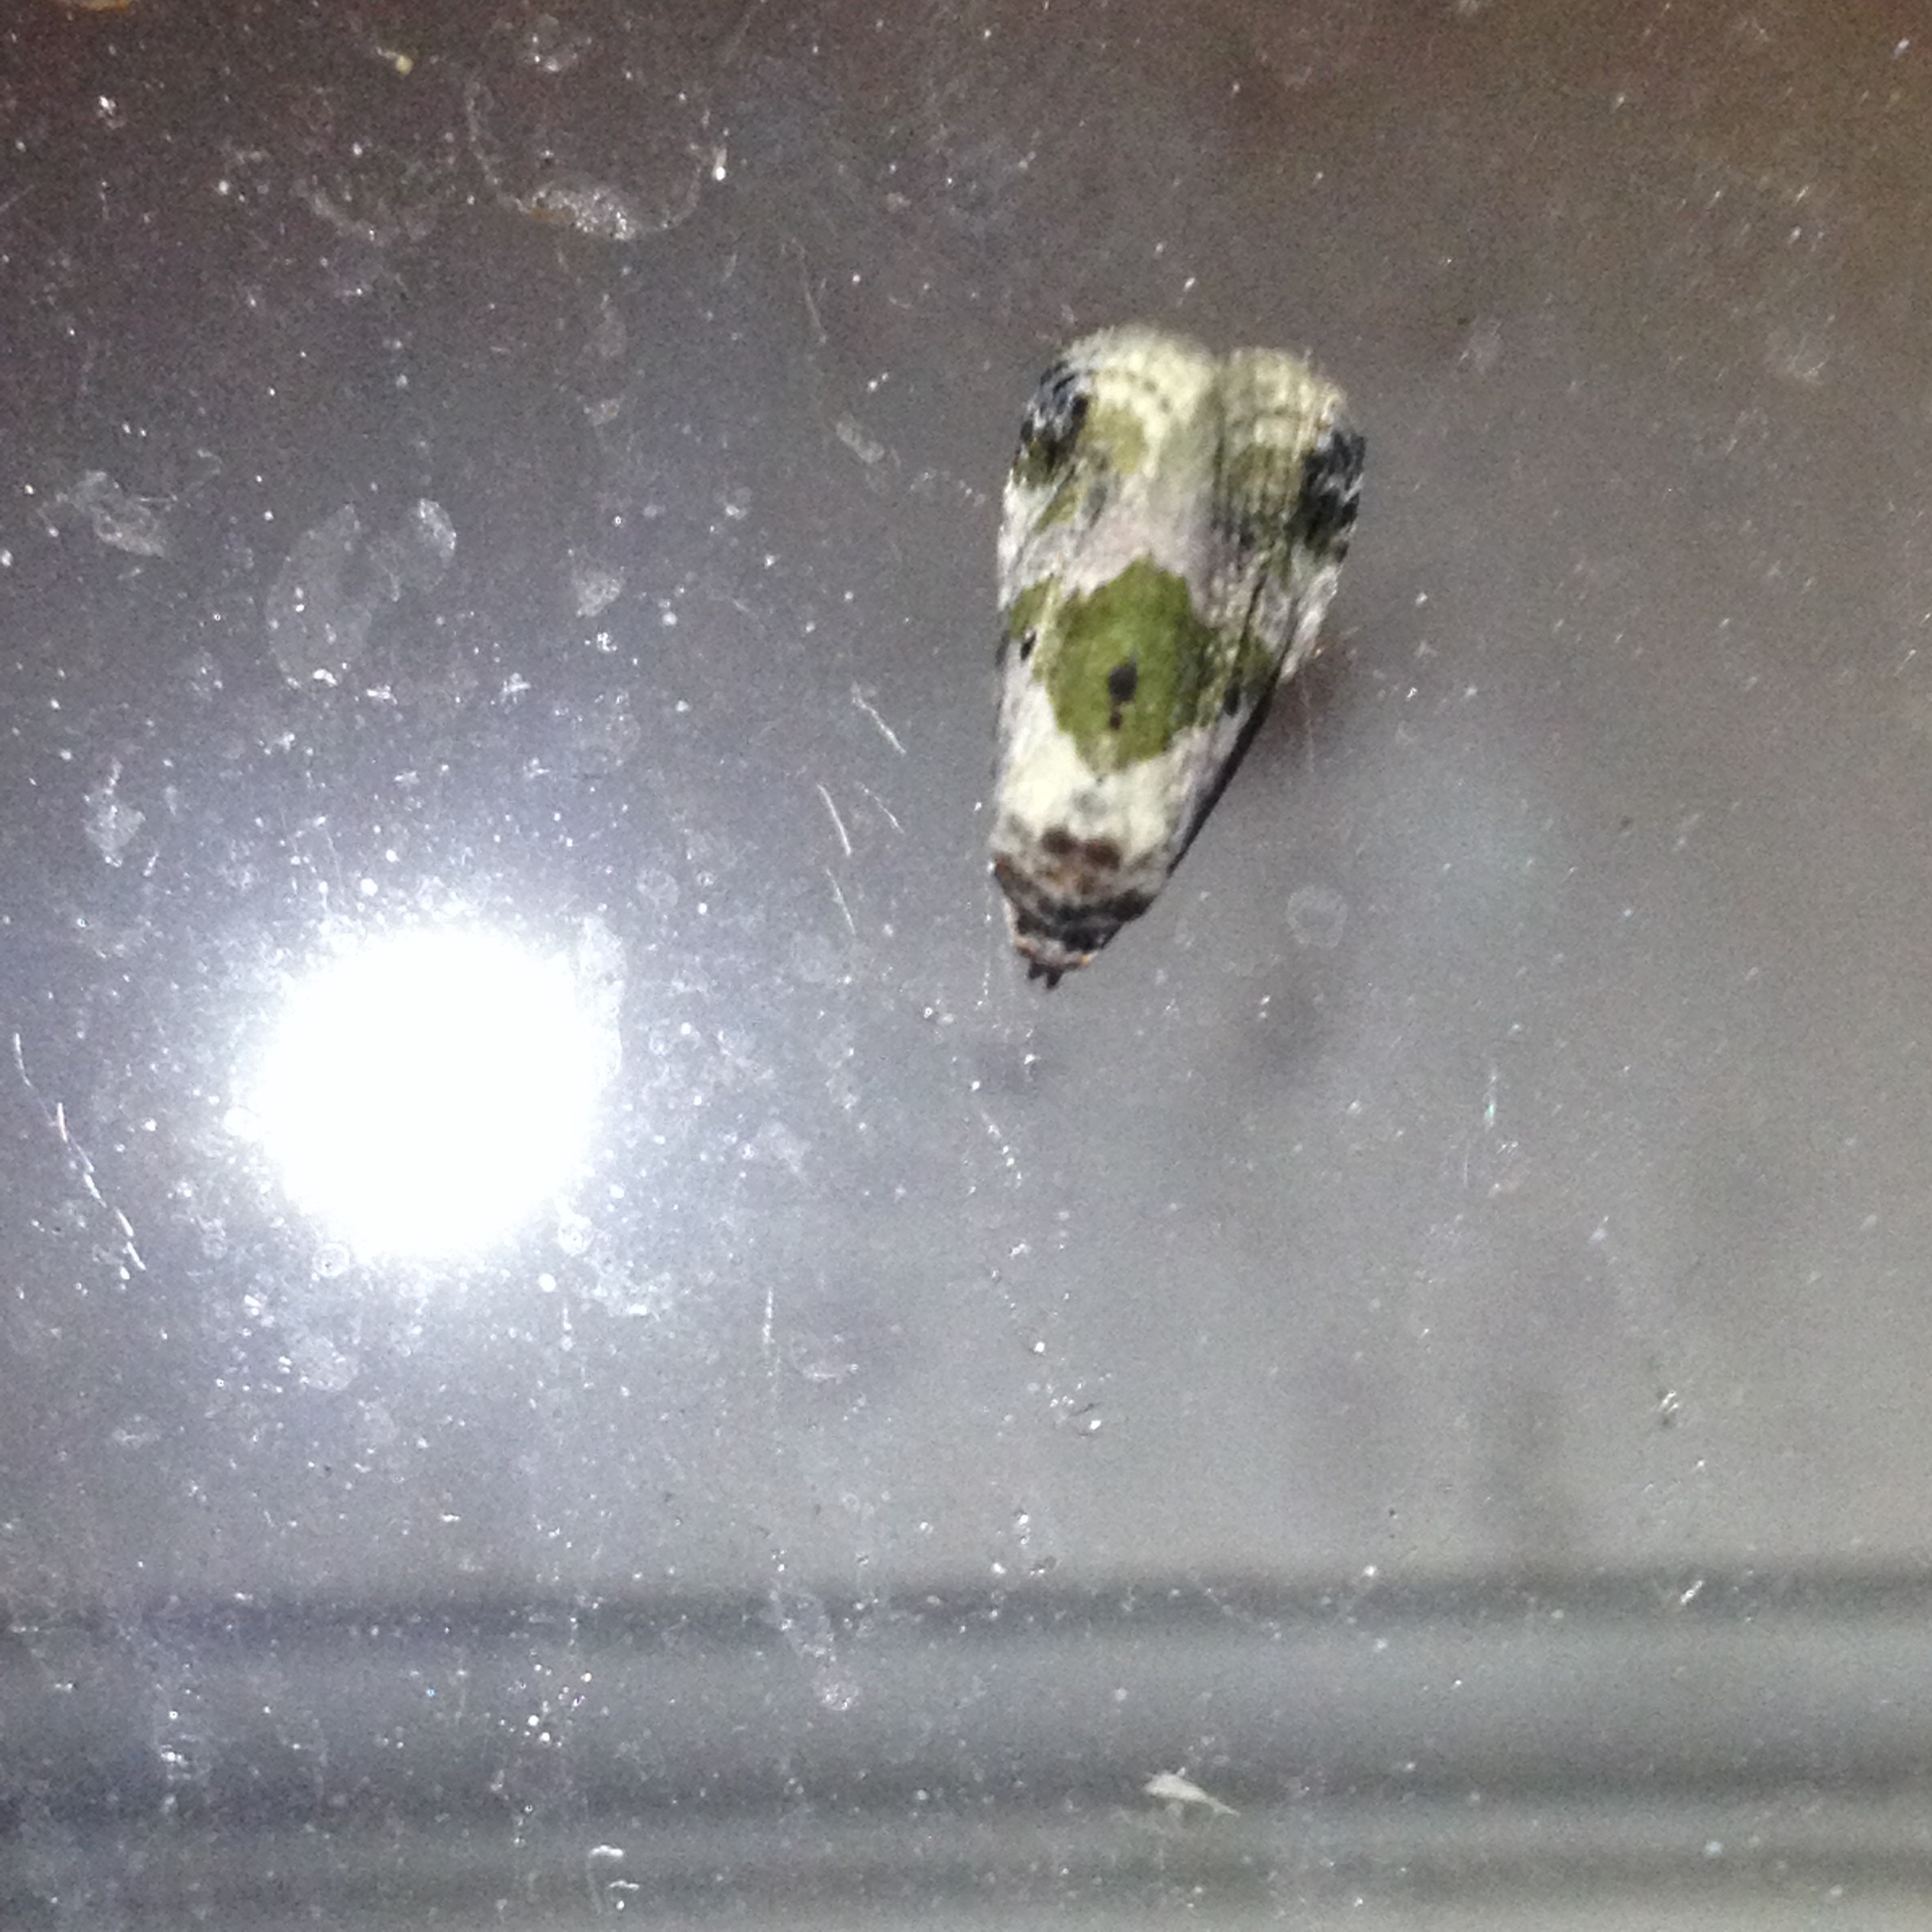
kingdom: Animalia
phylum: Arthropoda
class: Insecta
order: Lepidoptera
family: Noctuidae
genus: Maliattha
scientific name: Maliattha synochitis
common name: Black-dotted glyph
